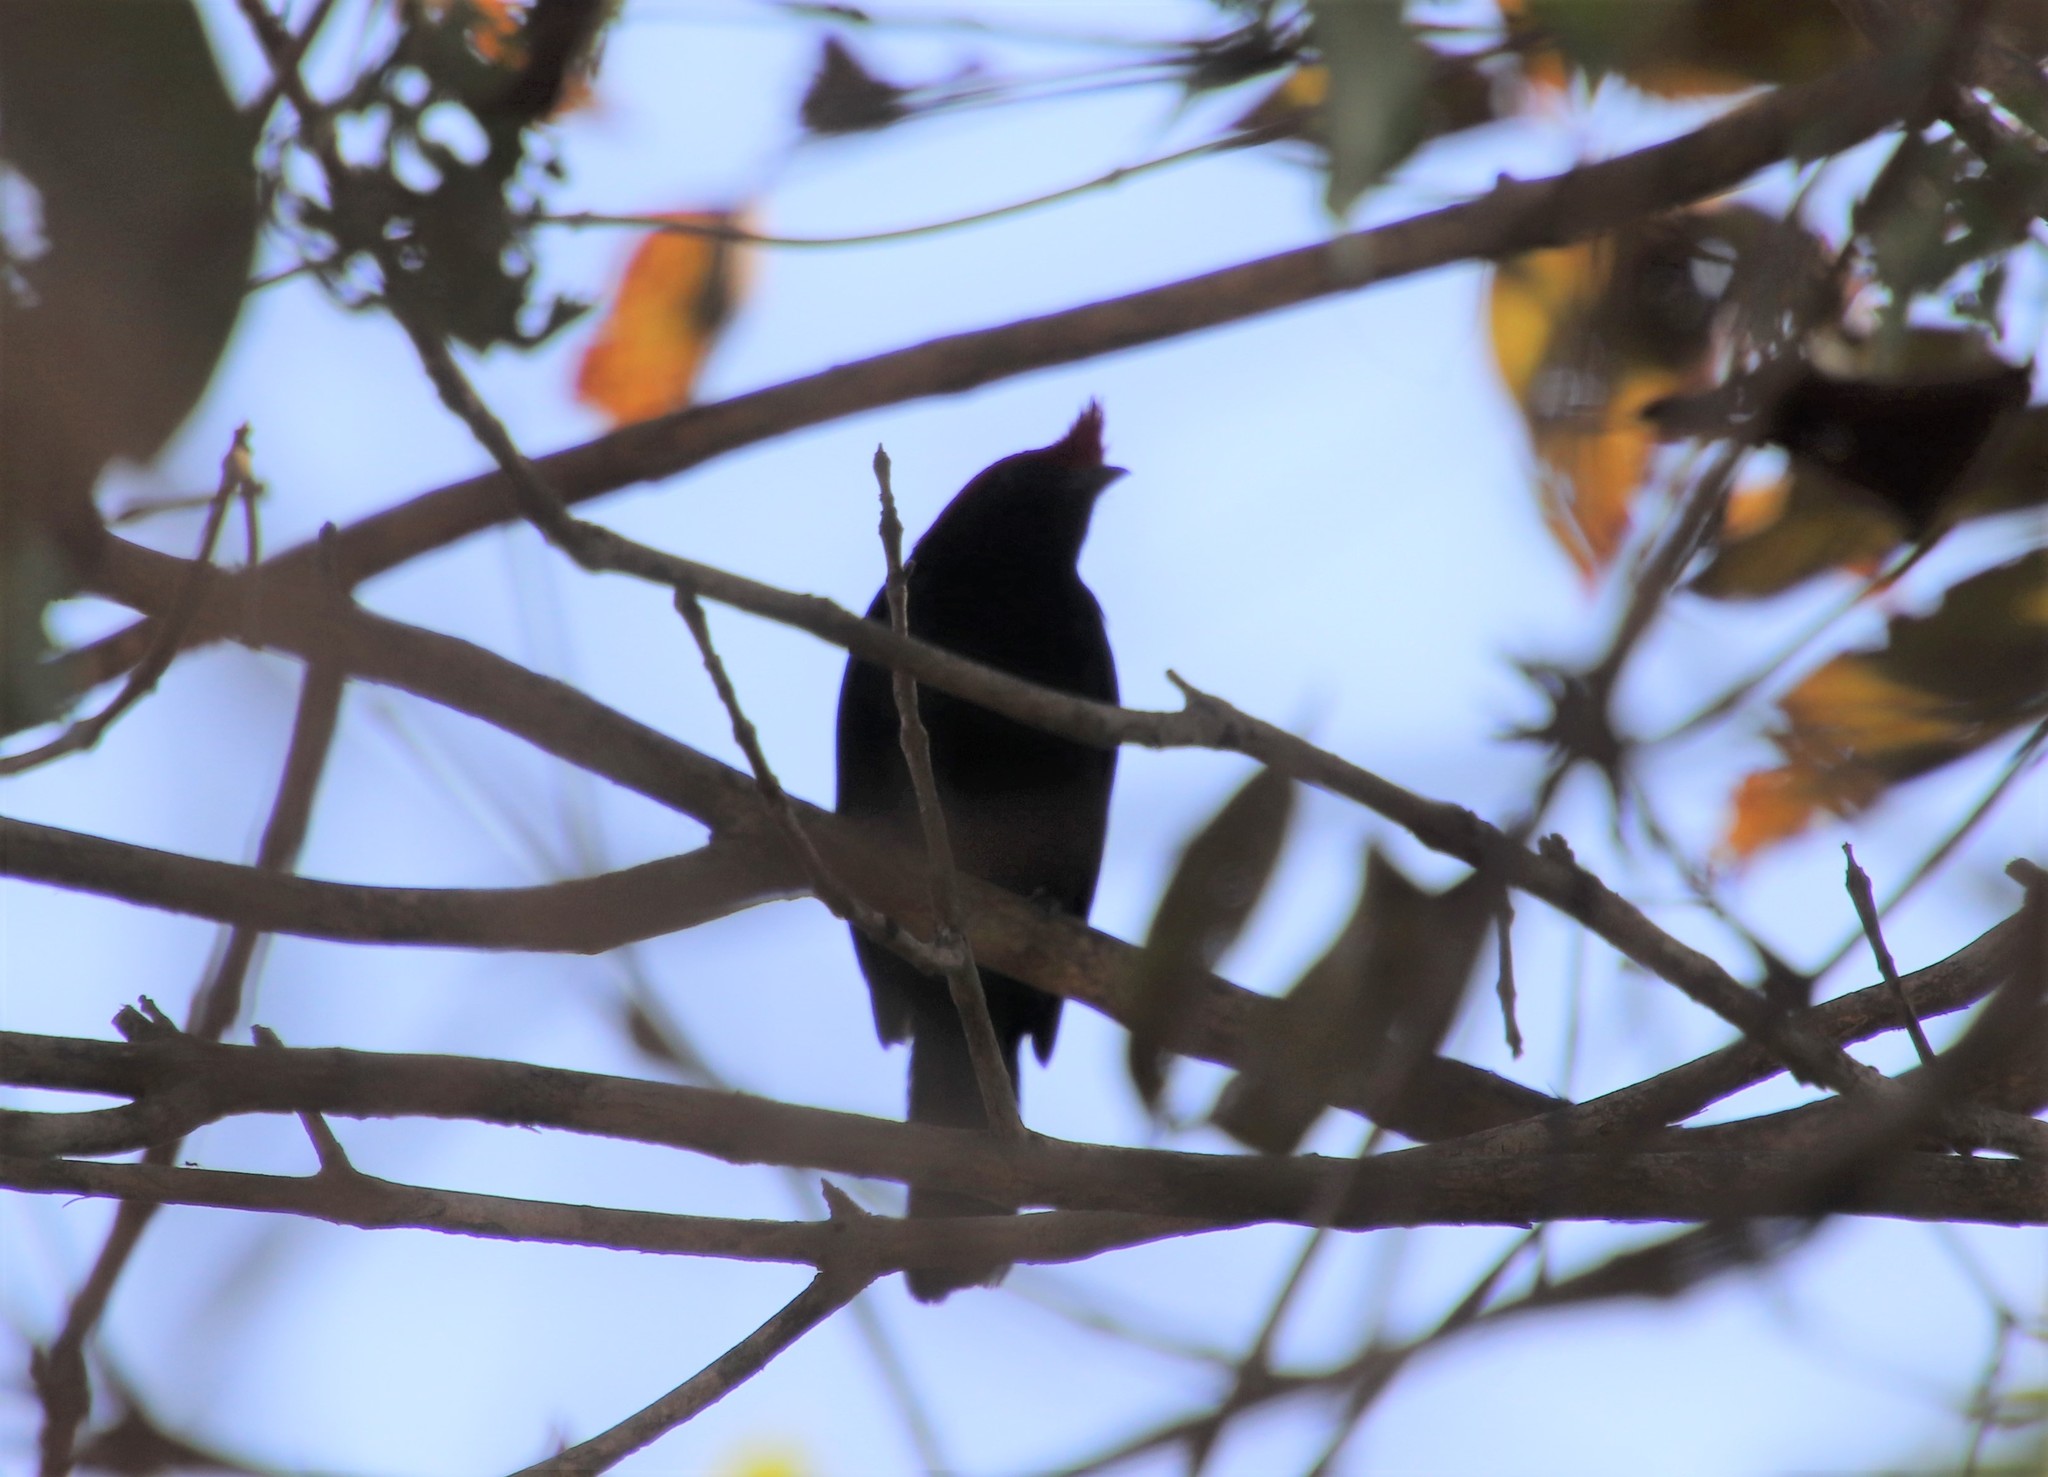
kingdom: Animalia
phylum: Chordata
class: Aves
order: Passeriformes
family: Pipridae
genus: Antilophia
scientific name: Antilophia galeata
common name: Helmeted manakin
